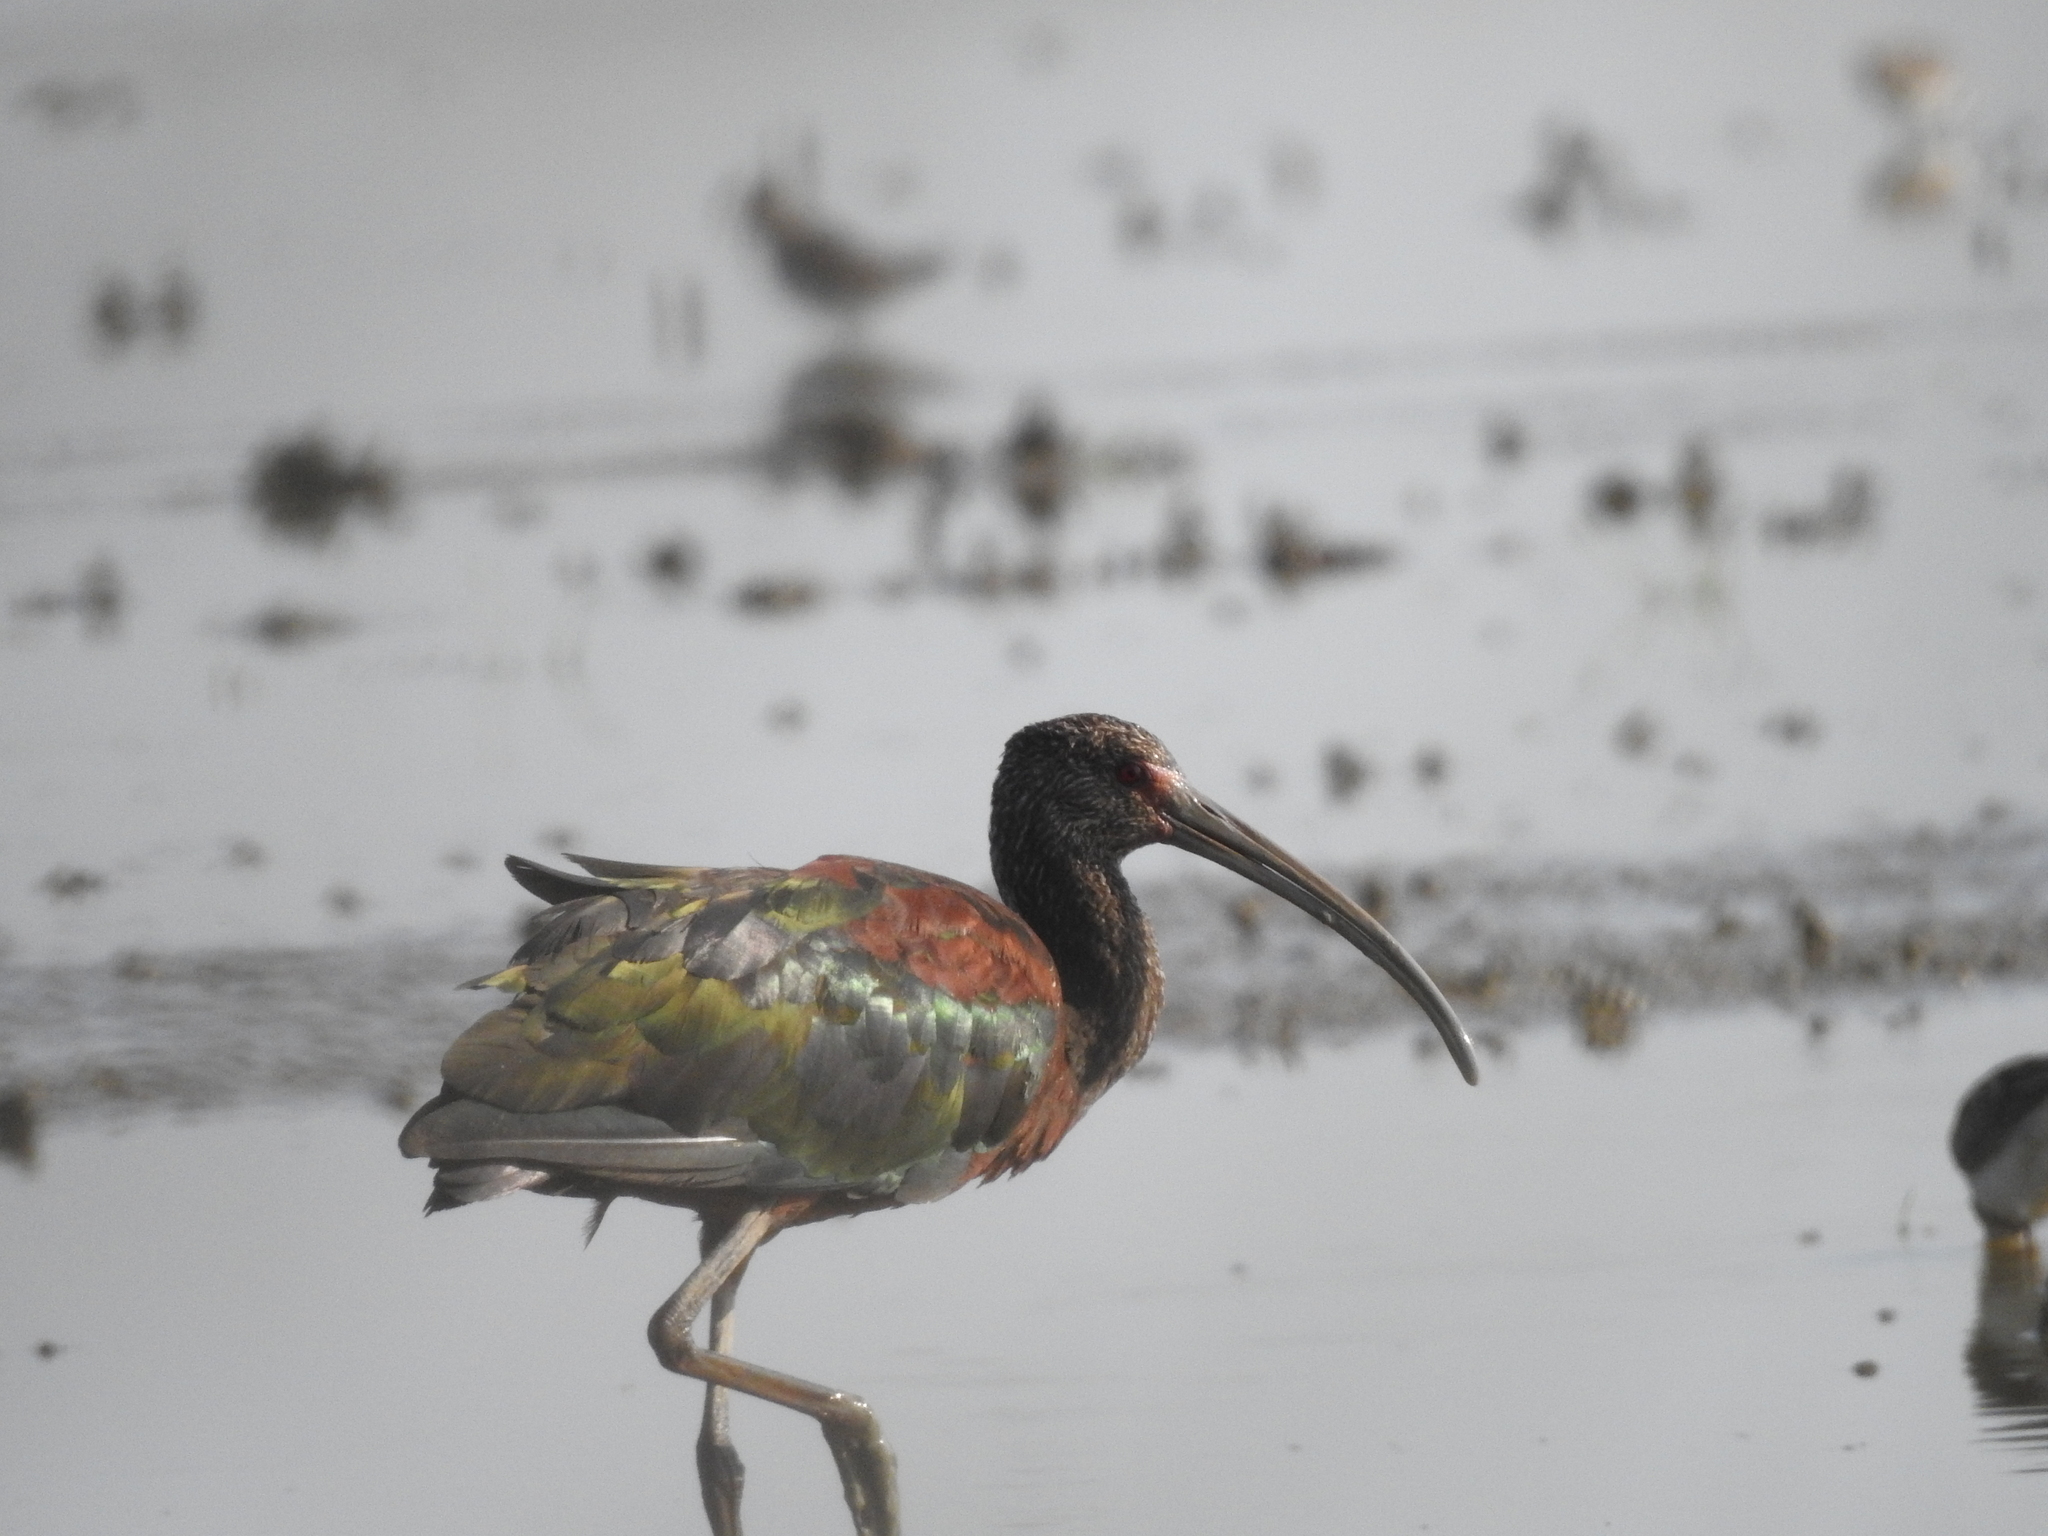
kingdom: Animalia
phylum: Chordata
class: Aves
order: Pelecaniformes
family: Threskiornithidae
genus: Plegadis
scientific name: Plegadis chihi
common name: White-faced ibis
